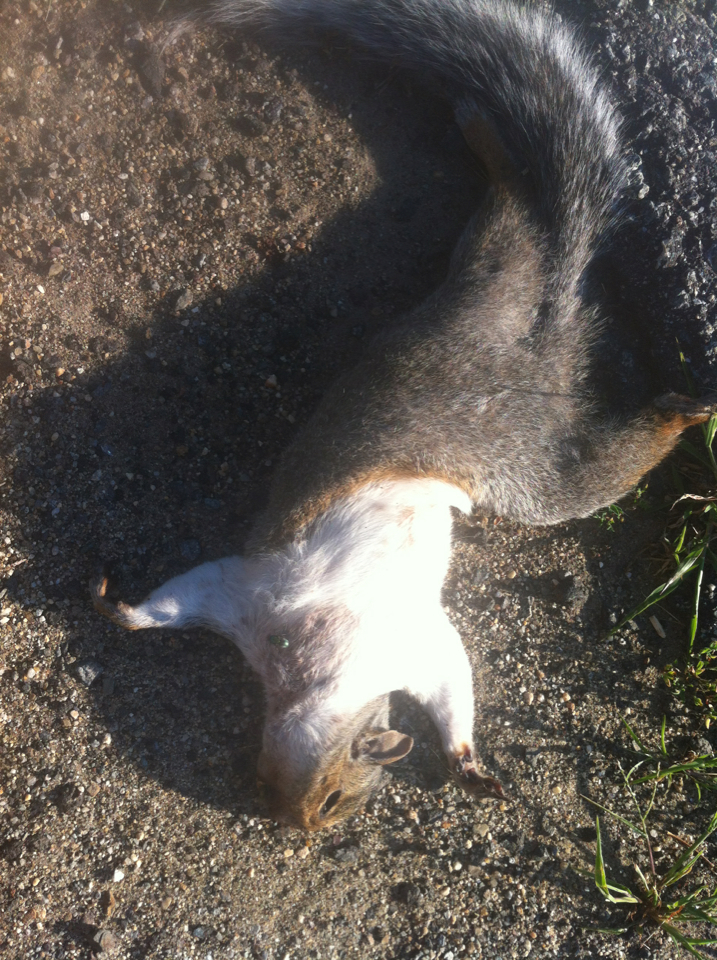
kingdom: Animalia
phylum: Chordata
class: Mammalia
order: Rodentia
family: Sciuridae
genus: Sciurus
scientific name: Sciurus carolinensis
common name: Eastern gray squirrel
